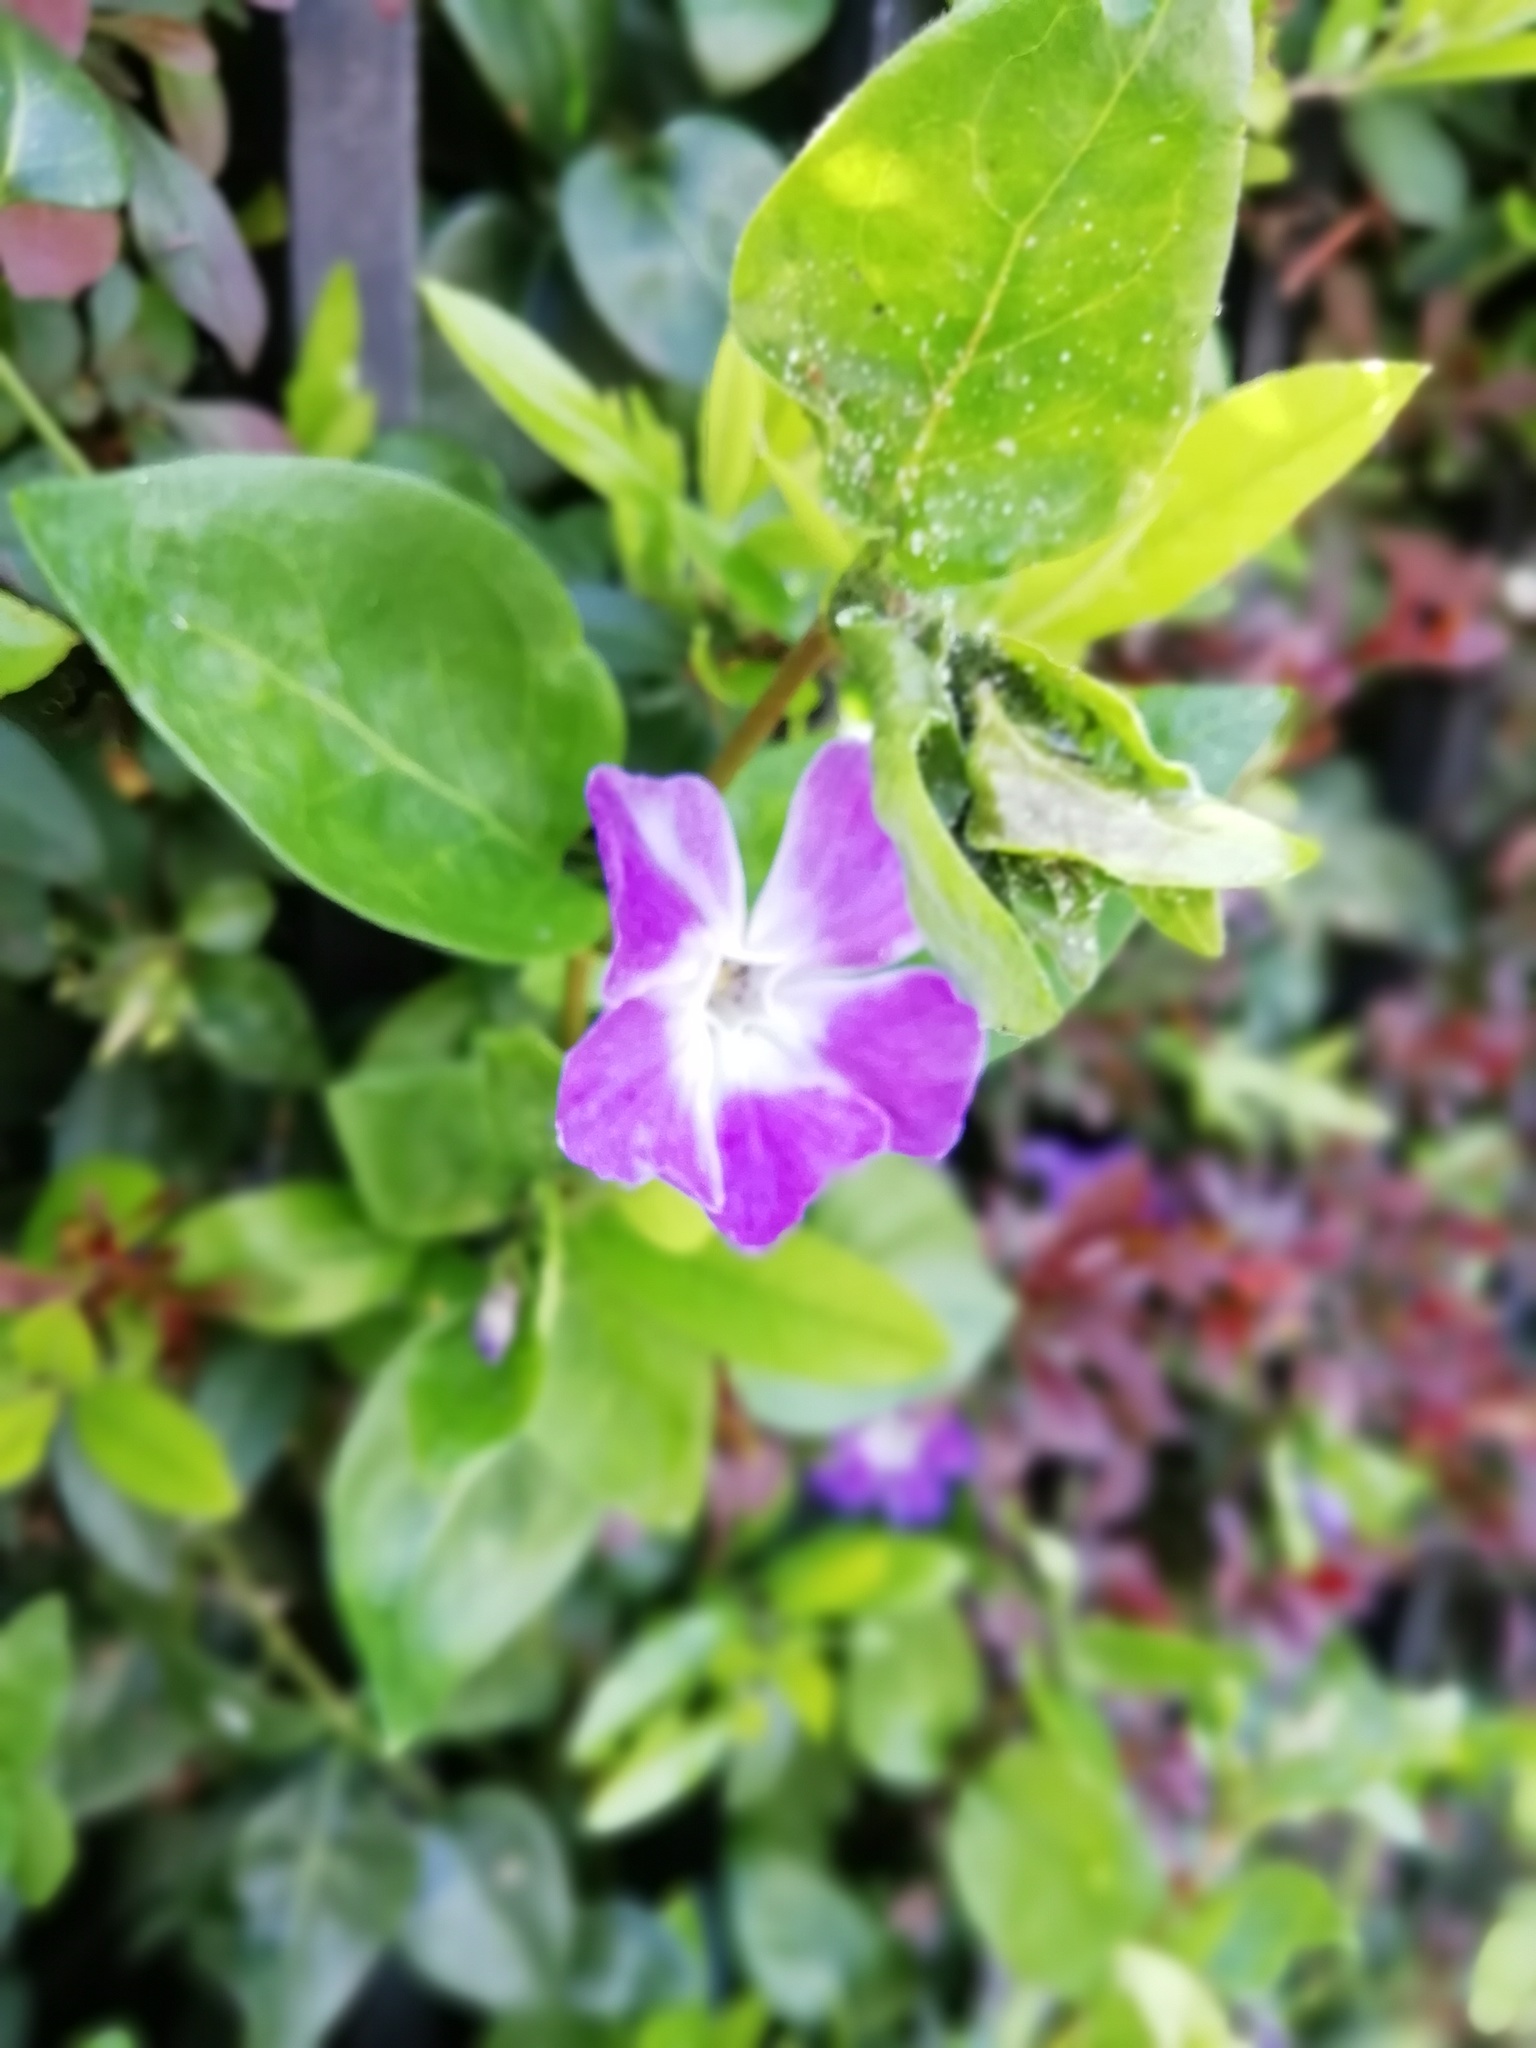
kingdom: Plantae
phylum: Tracheophyta
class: Magnoliopsida
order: Gentianales
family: Apocynaceae
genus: Vinca
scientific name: Vinca minor
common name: Lesser periwinkle
